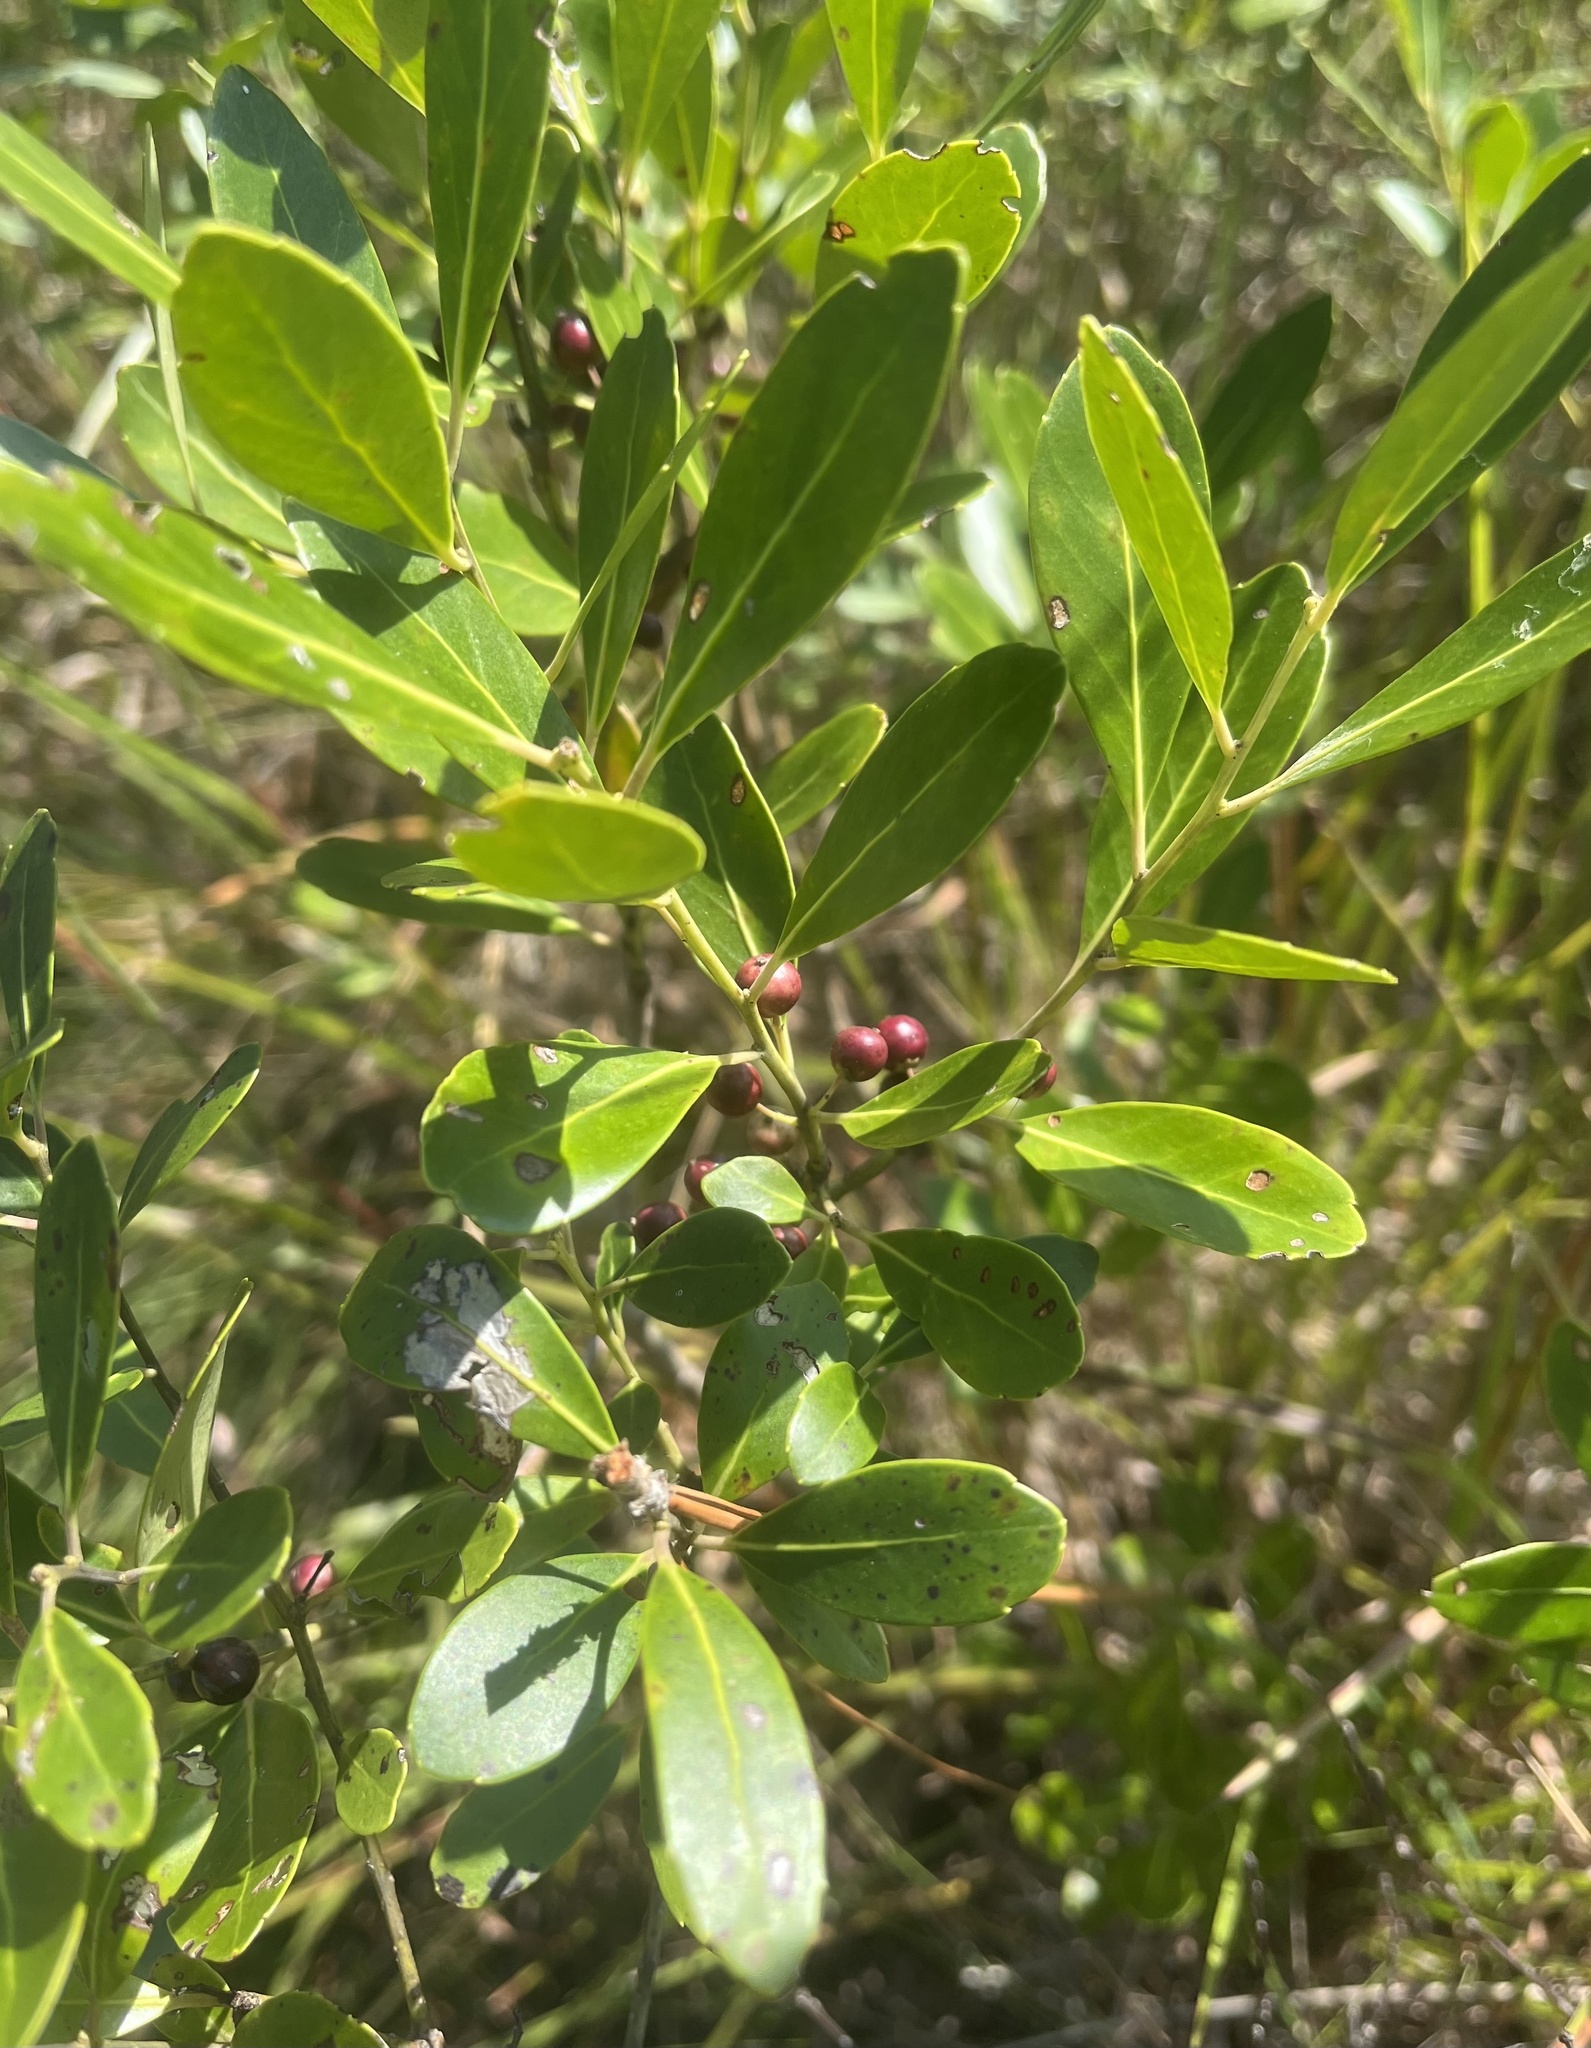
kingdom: Plantae
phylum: Tracheophyta
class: Magnoliopsida
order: Aquifoliales
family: Aquifoliaceae
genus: Ilex
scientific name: Ilex glabra
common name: Bitter gallberry
